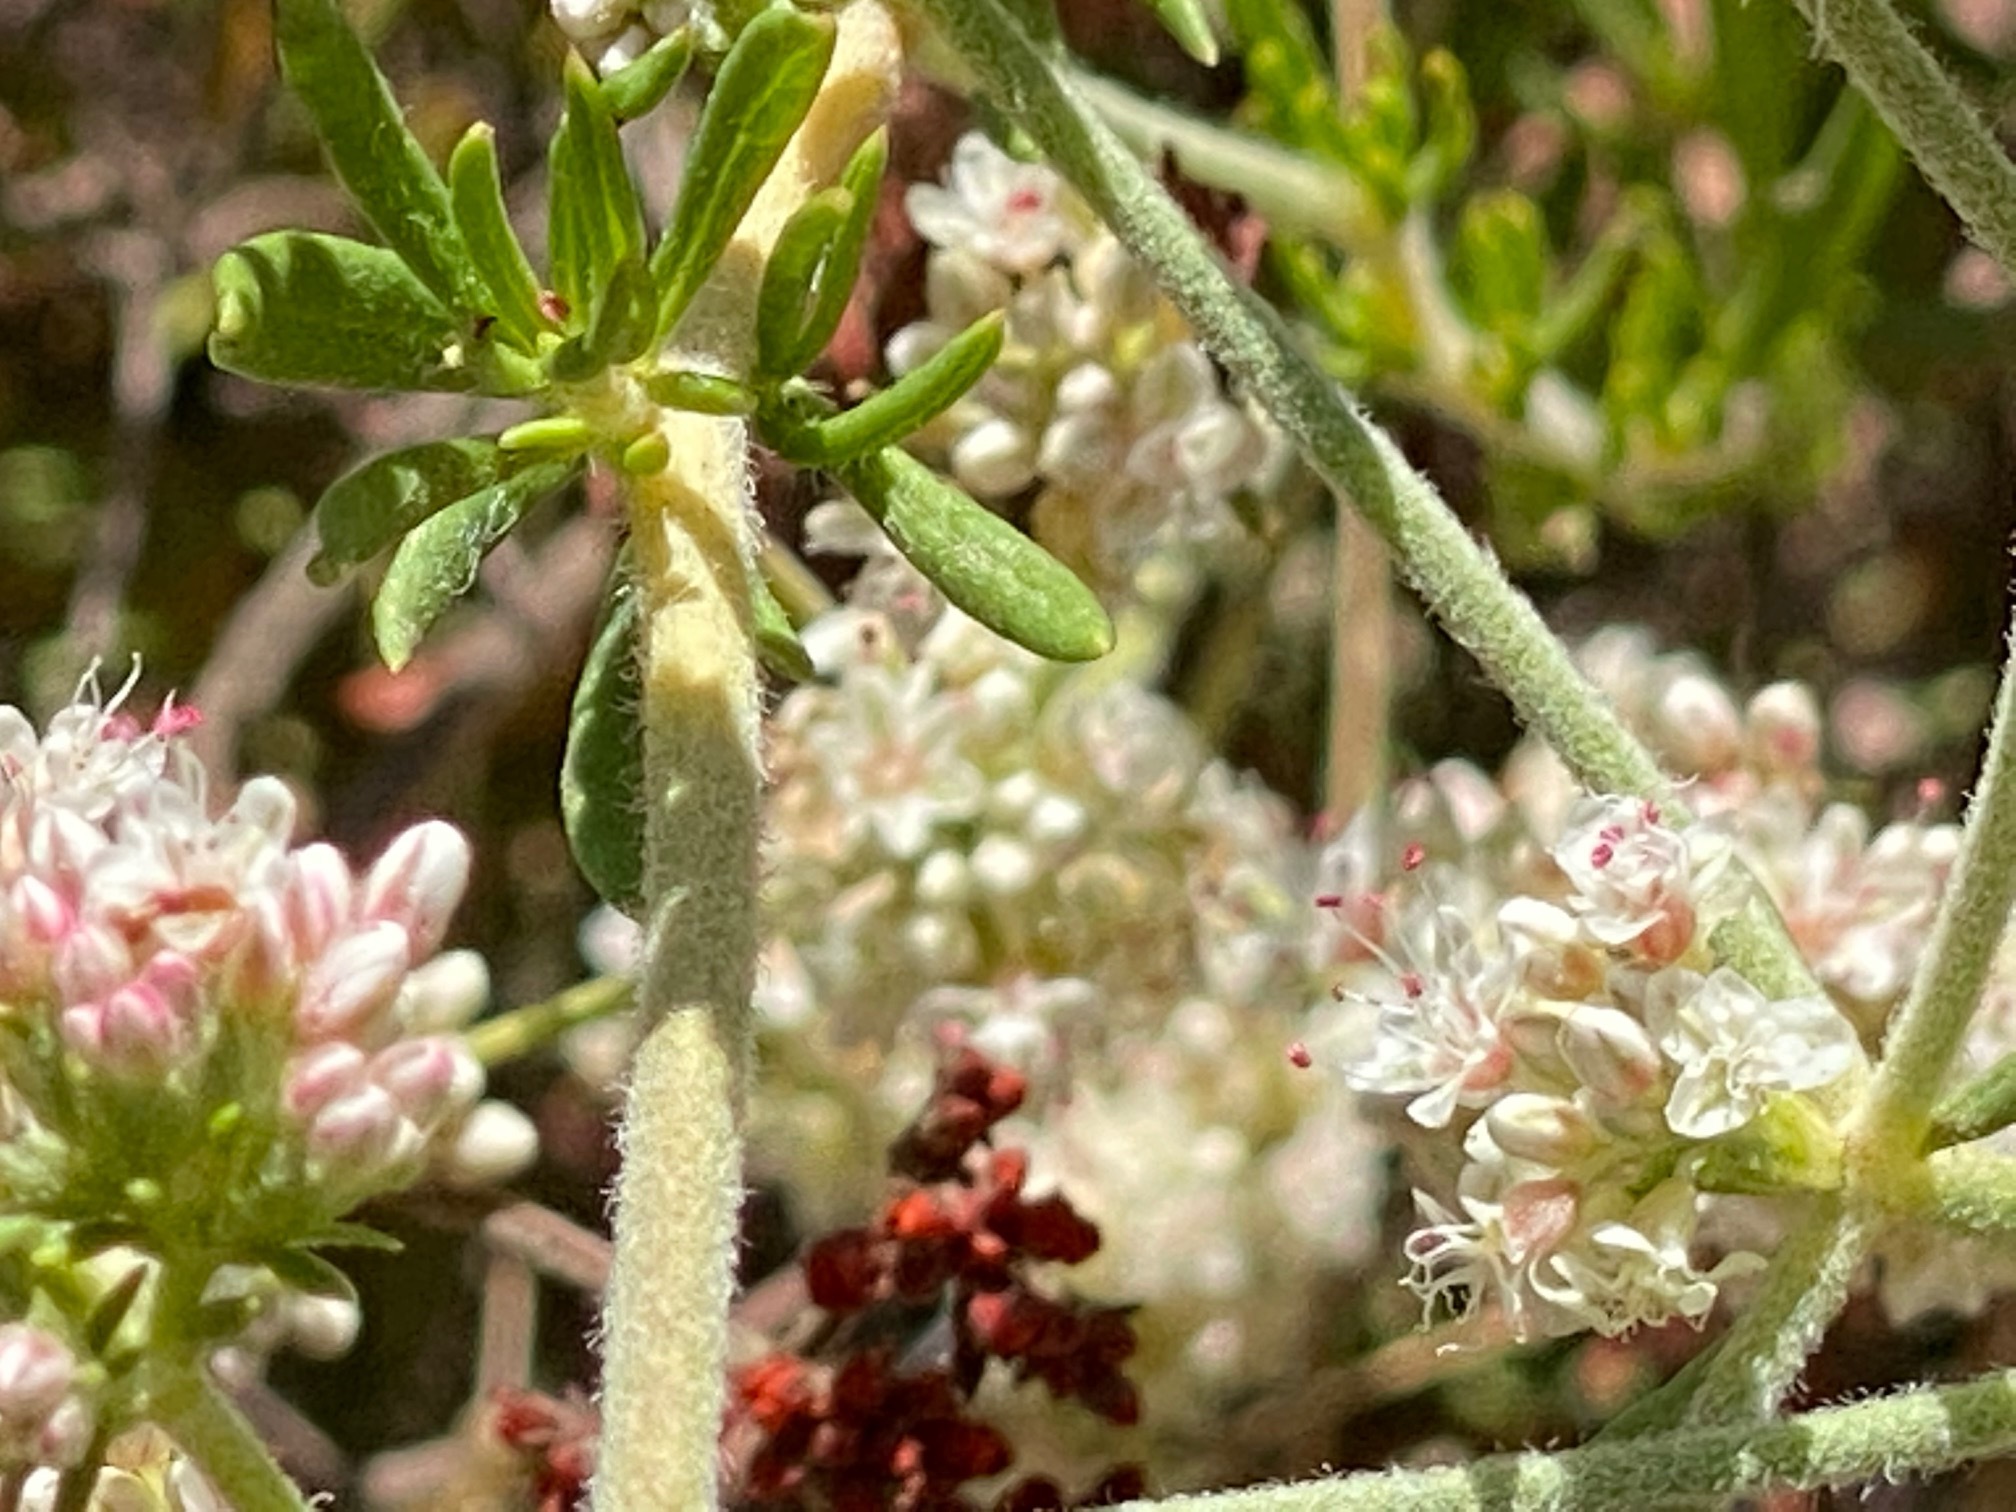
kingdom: Plantae
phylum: Tracheophyta
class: Magnoliopsida
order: Caryophyllales
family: Polygonaceae
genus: Eriogonum
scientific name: Eriogonum fasciculatum
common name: California wild buckwheat
